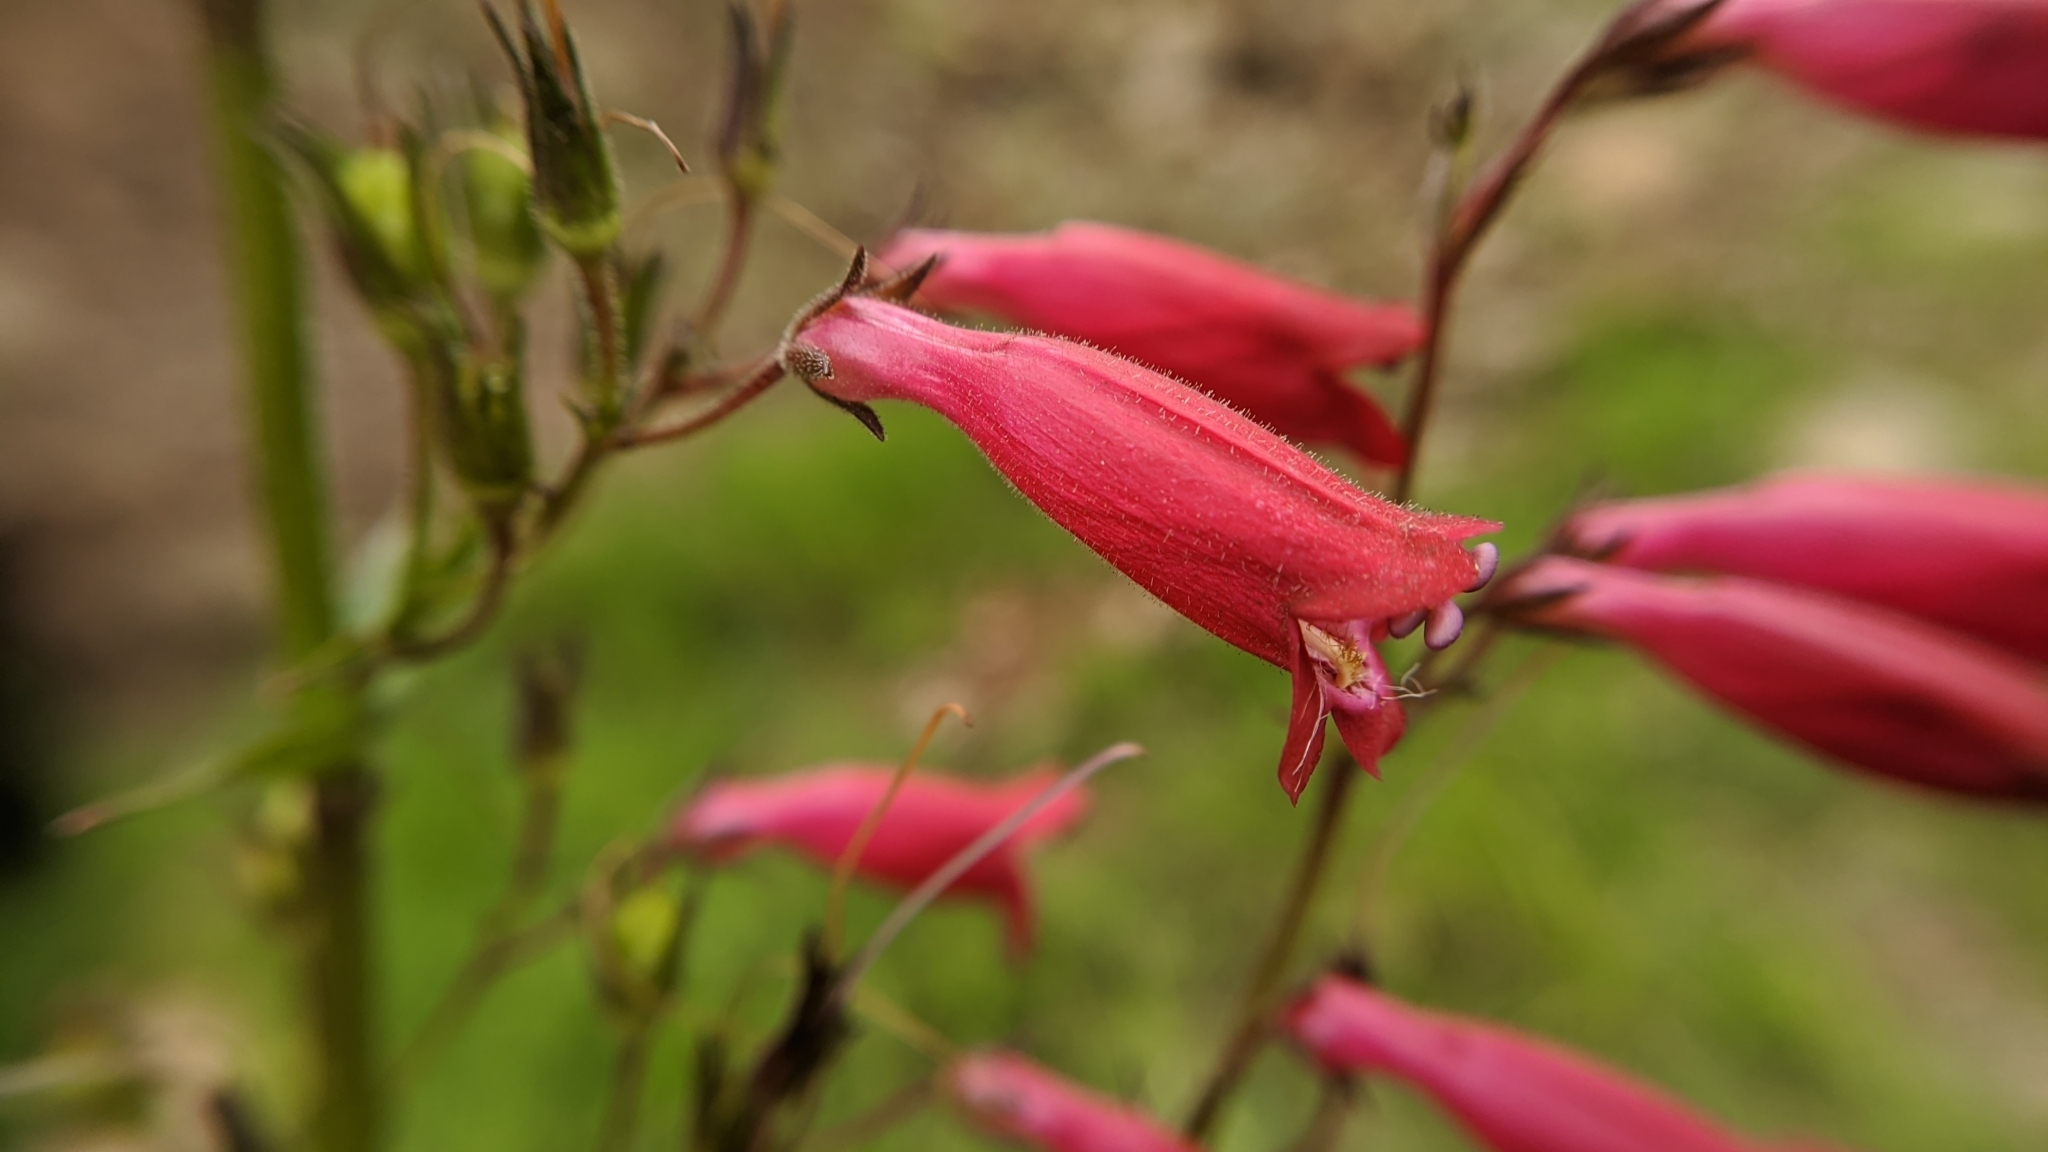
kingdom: Plantae
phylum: Tracheophyta
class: Magnoliopsida
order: Lamiales
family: Plantaginaceae
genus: Penstemon
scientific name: Penstemon roseus
